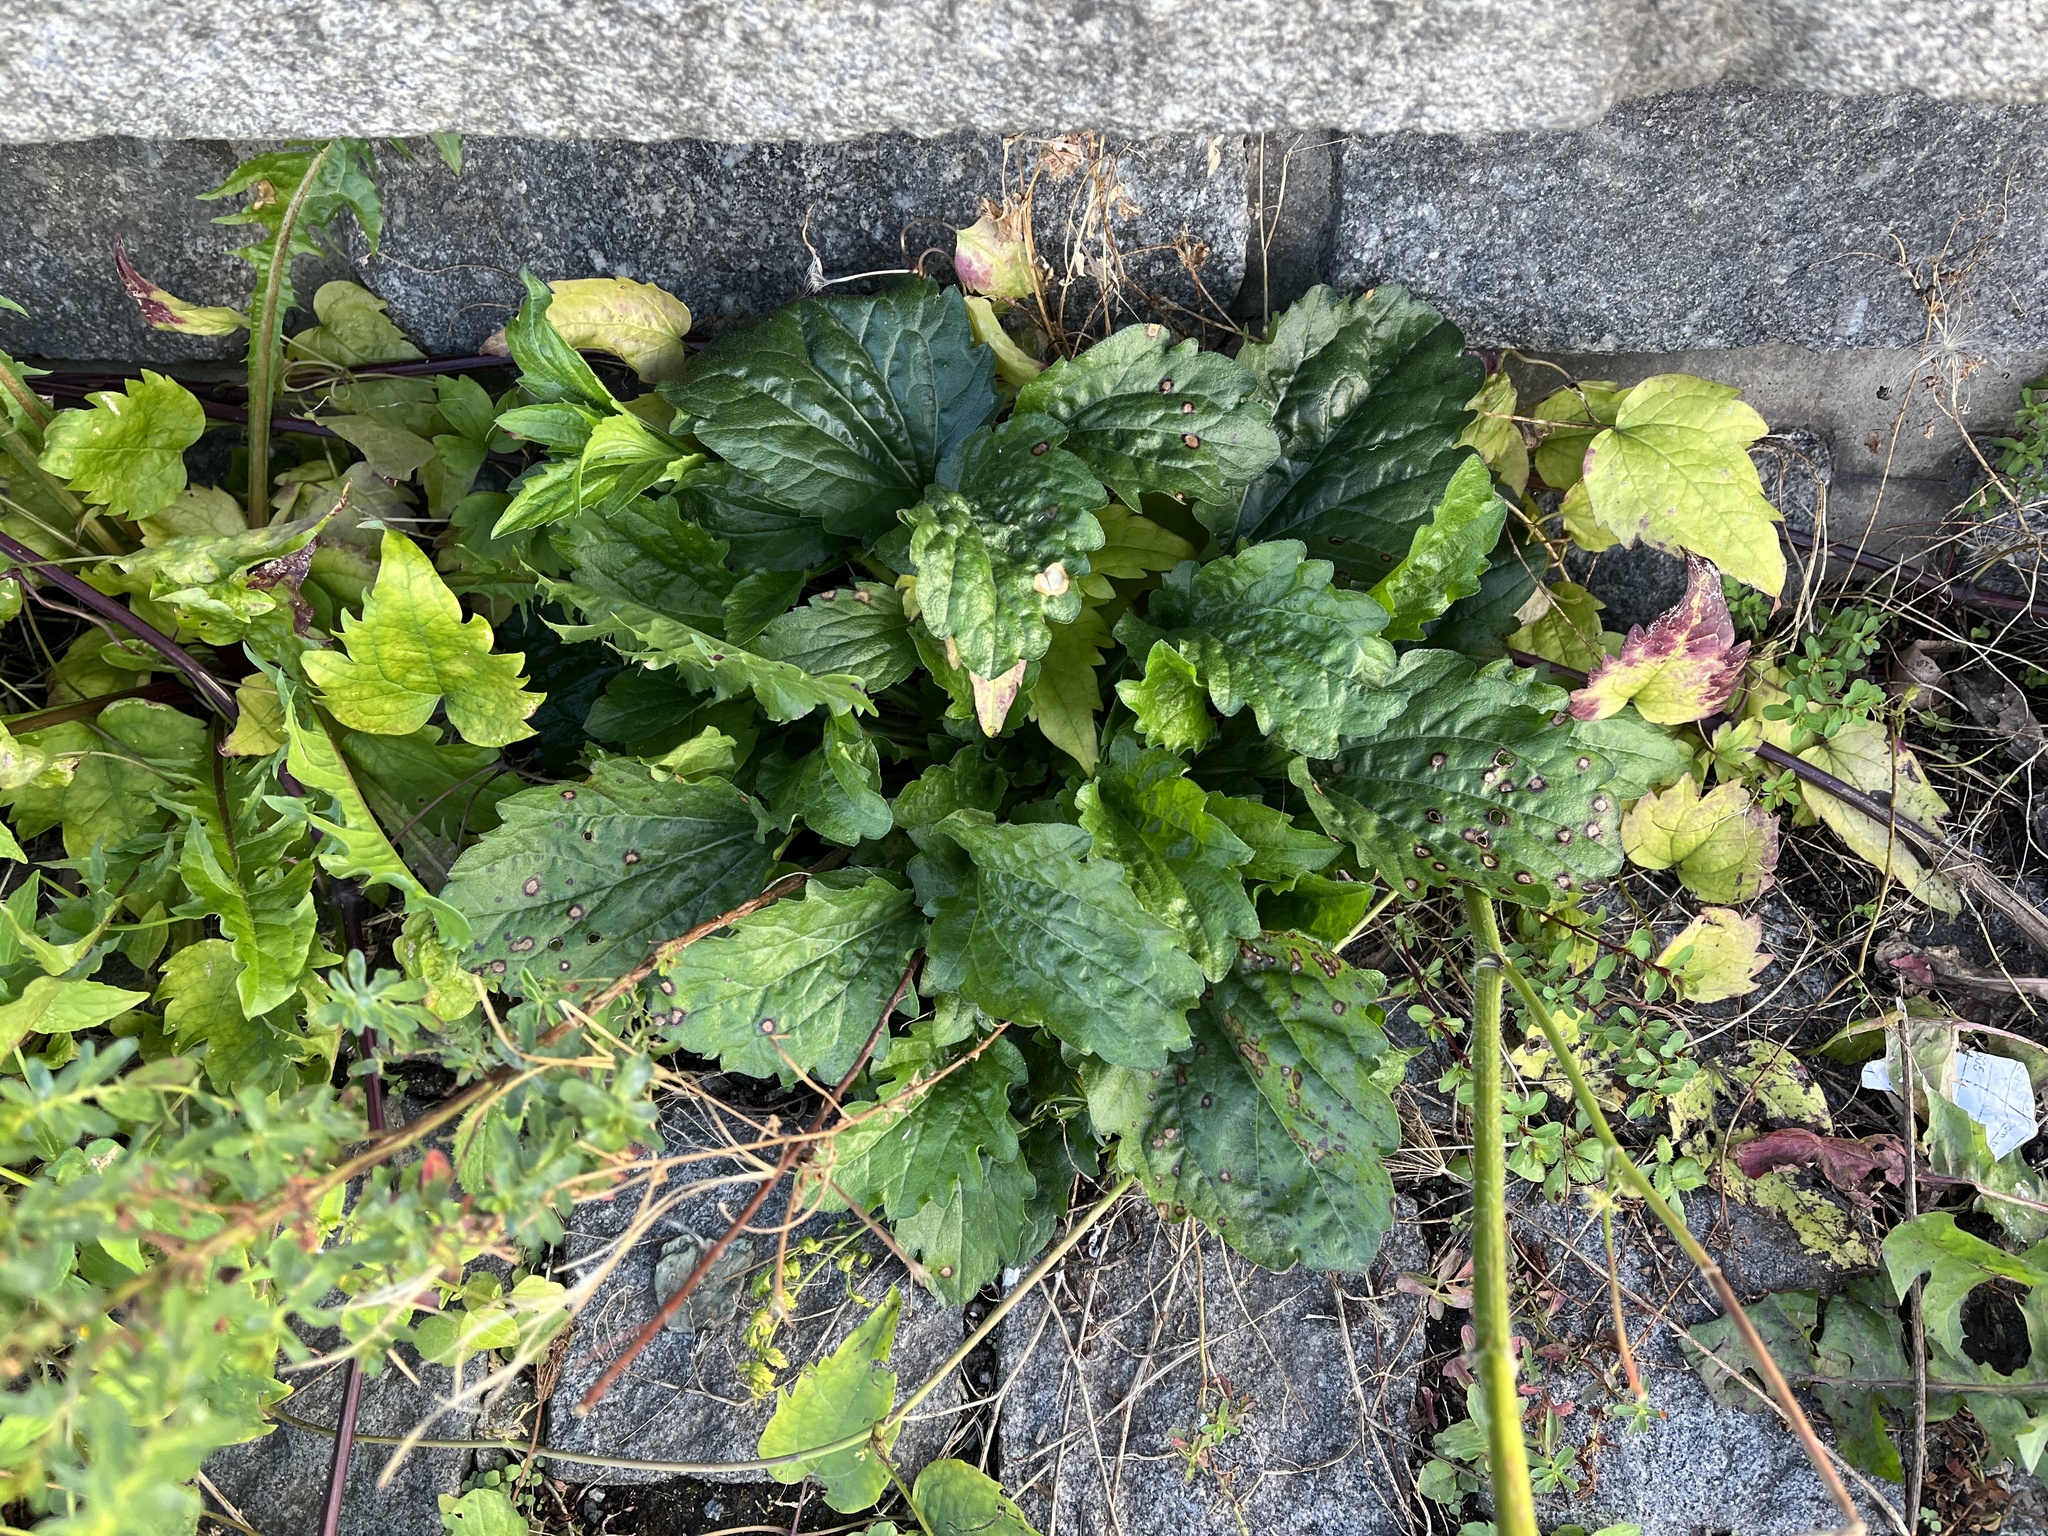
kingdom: Plantae
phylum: Tracheophyta
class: Magnoliopsida
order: Asterales
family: Asteraceae
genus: Erigeron
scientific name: Erigeron annuus
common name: Tall fleabane
